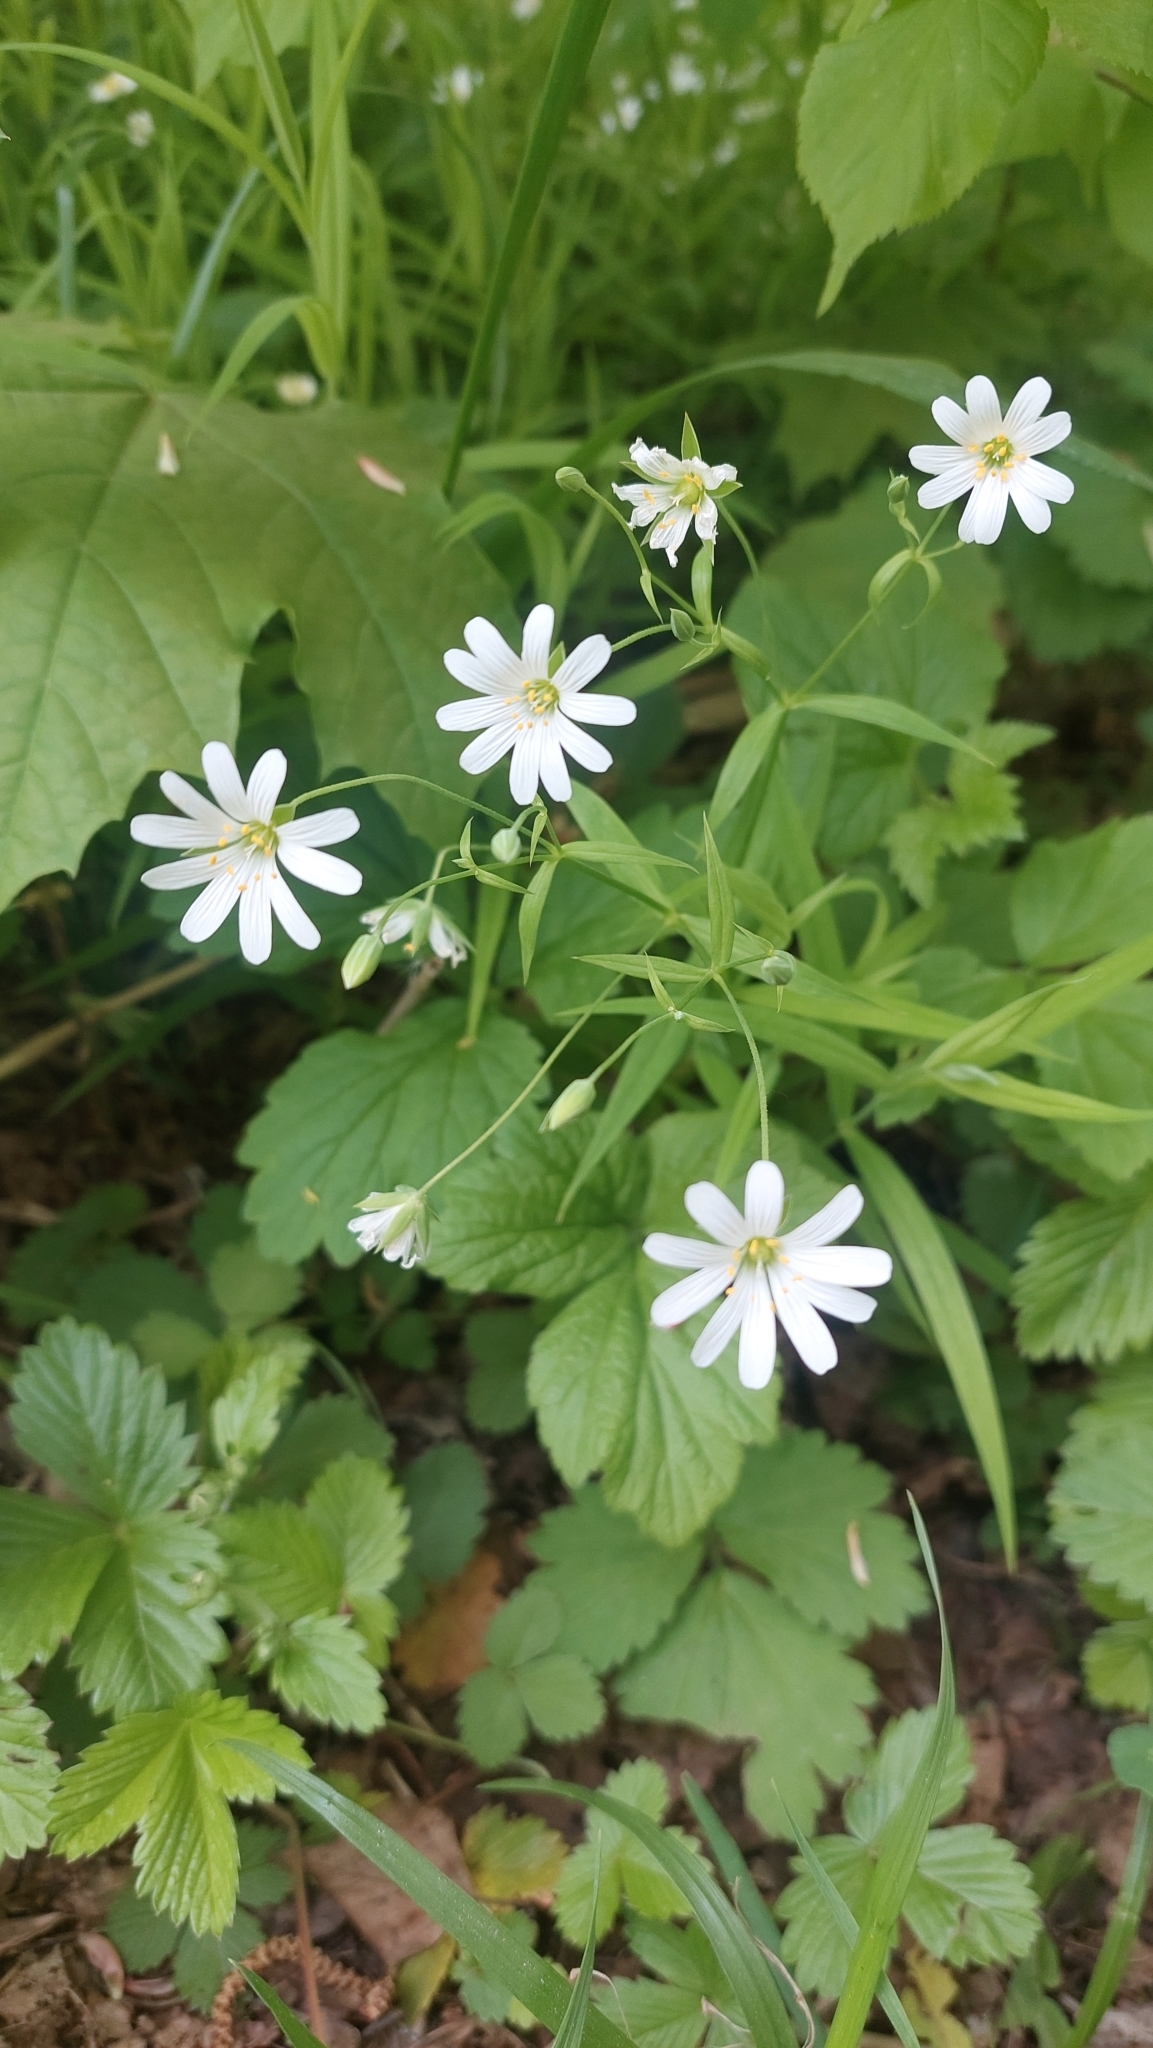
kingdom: Plantae
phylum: Tracheophyta
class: Magnoliopsida
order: Caryophyllales
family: Caryophyllaceae
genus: Rabelera
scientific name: Rabelera holostea
